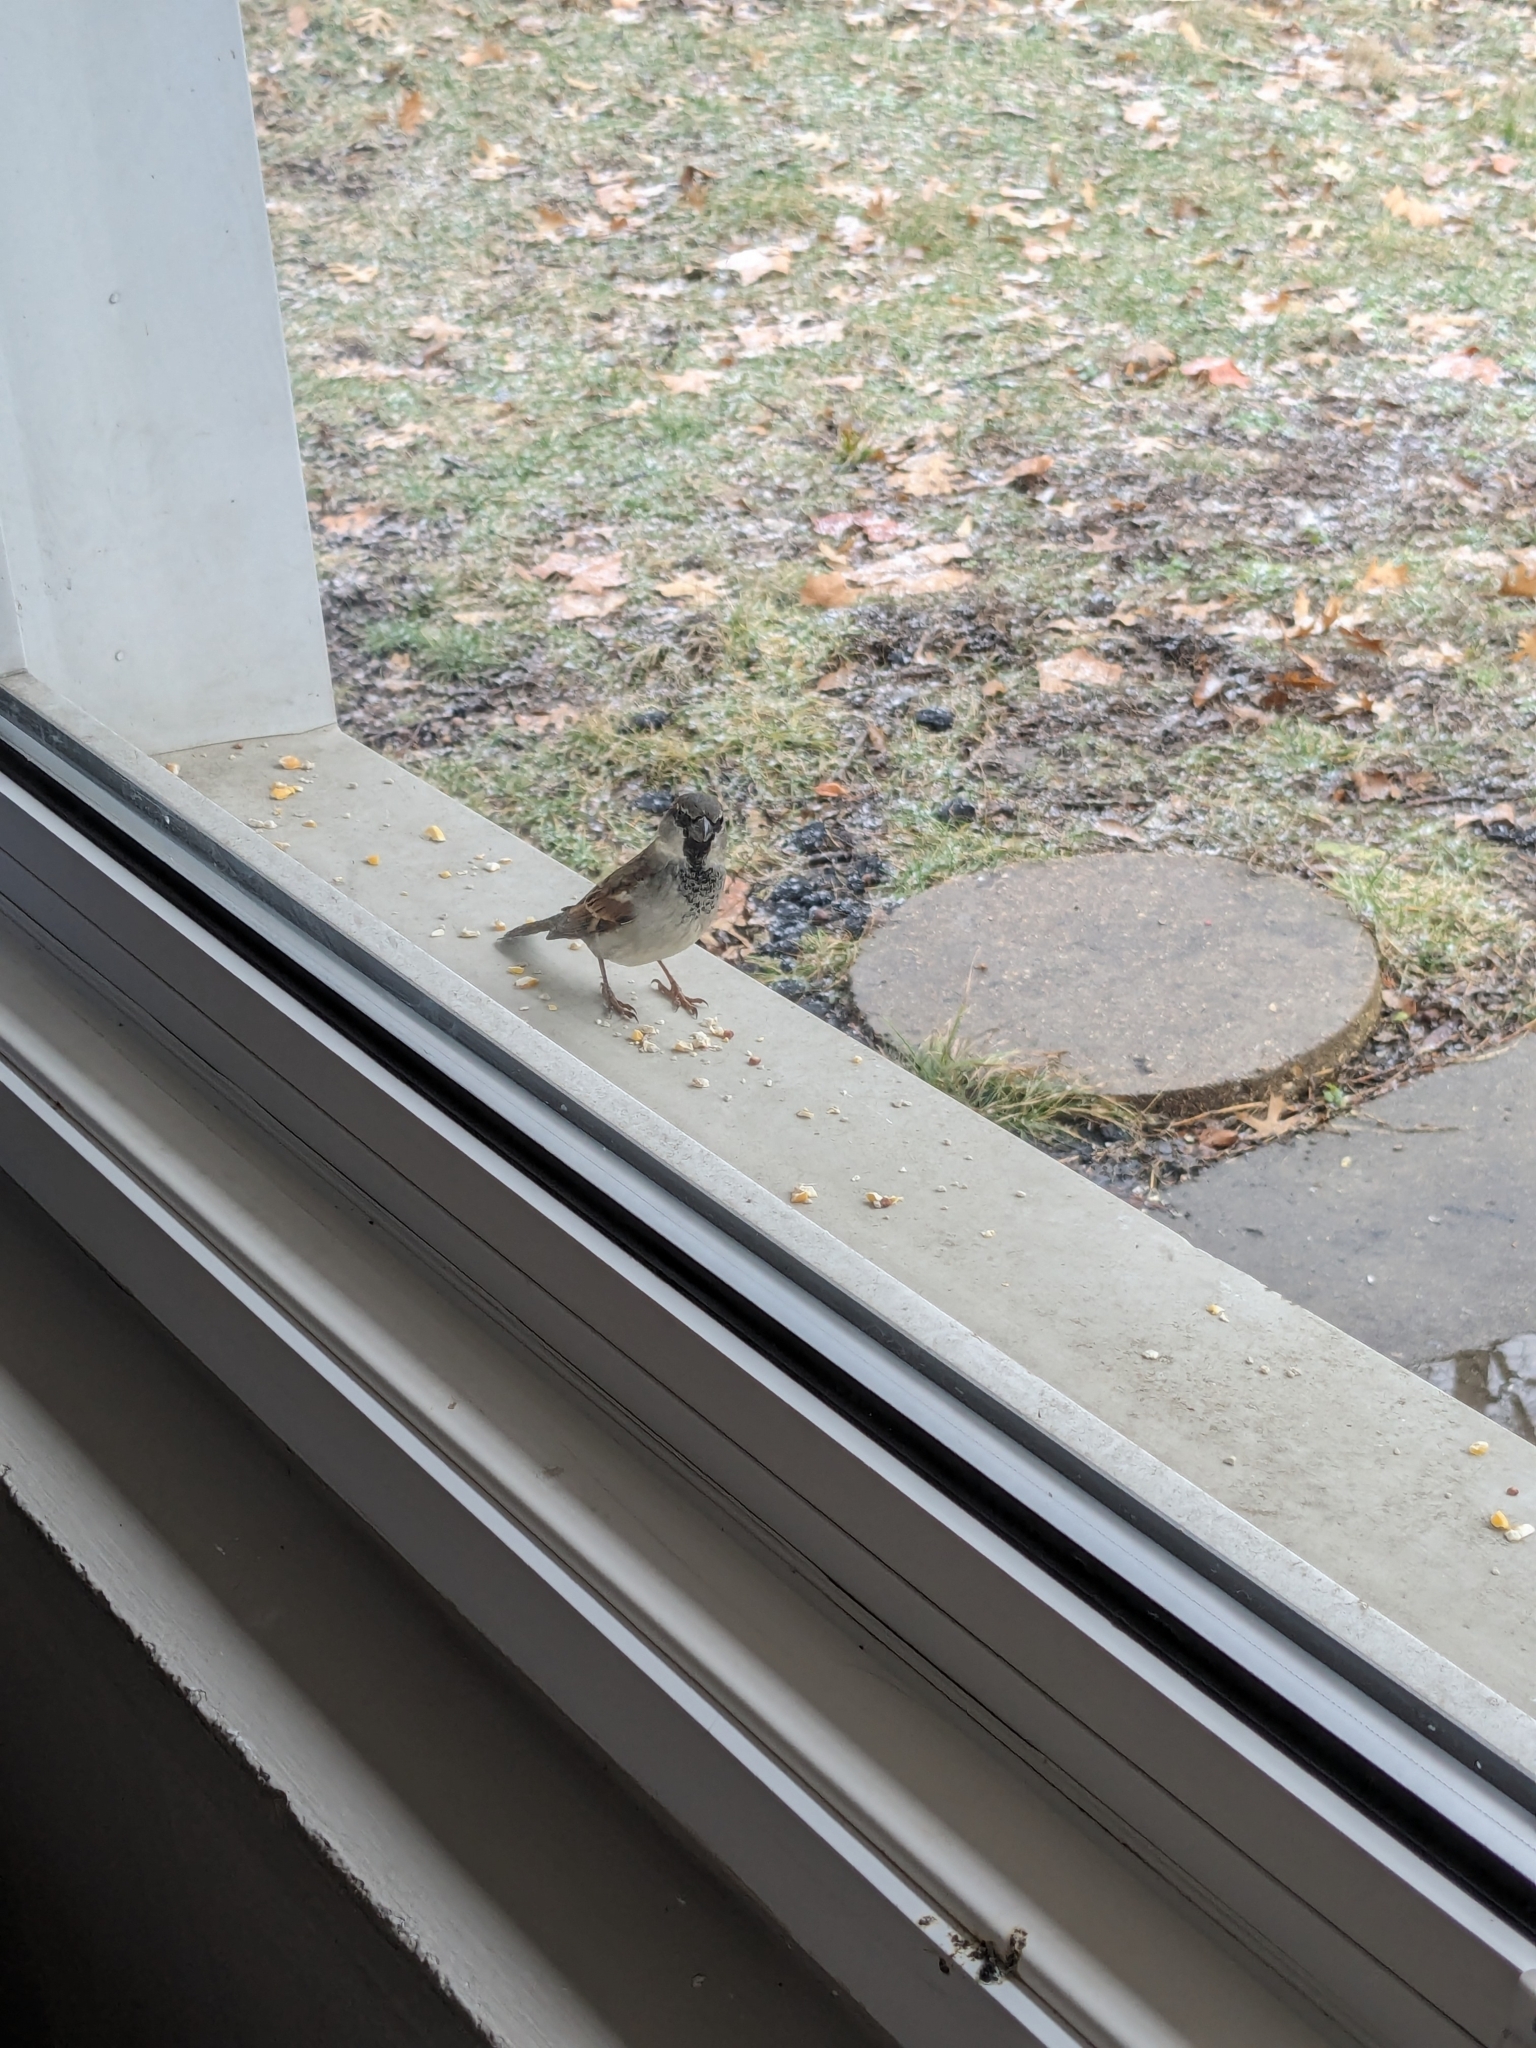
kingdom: Animalia
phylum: Chordata
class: Aves
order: Passeriformes
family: Passeridae
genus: Passer
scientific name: Passer domesticus
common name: House sparrow
